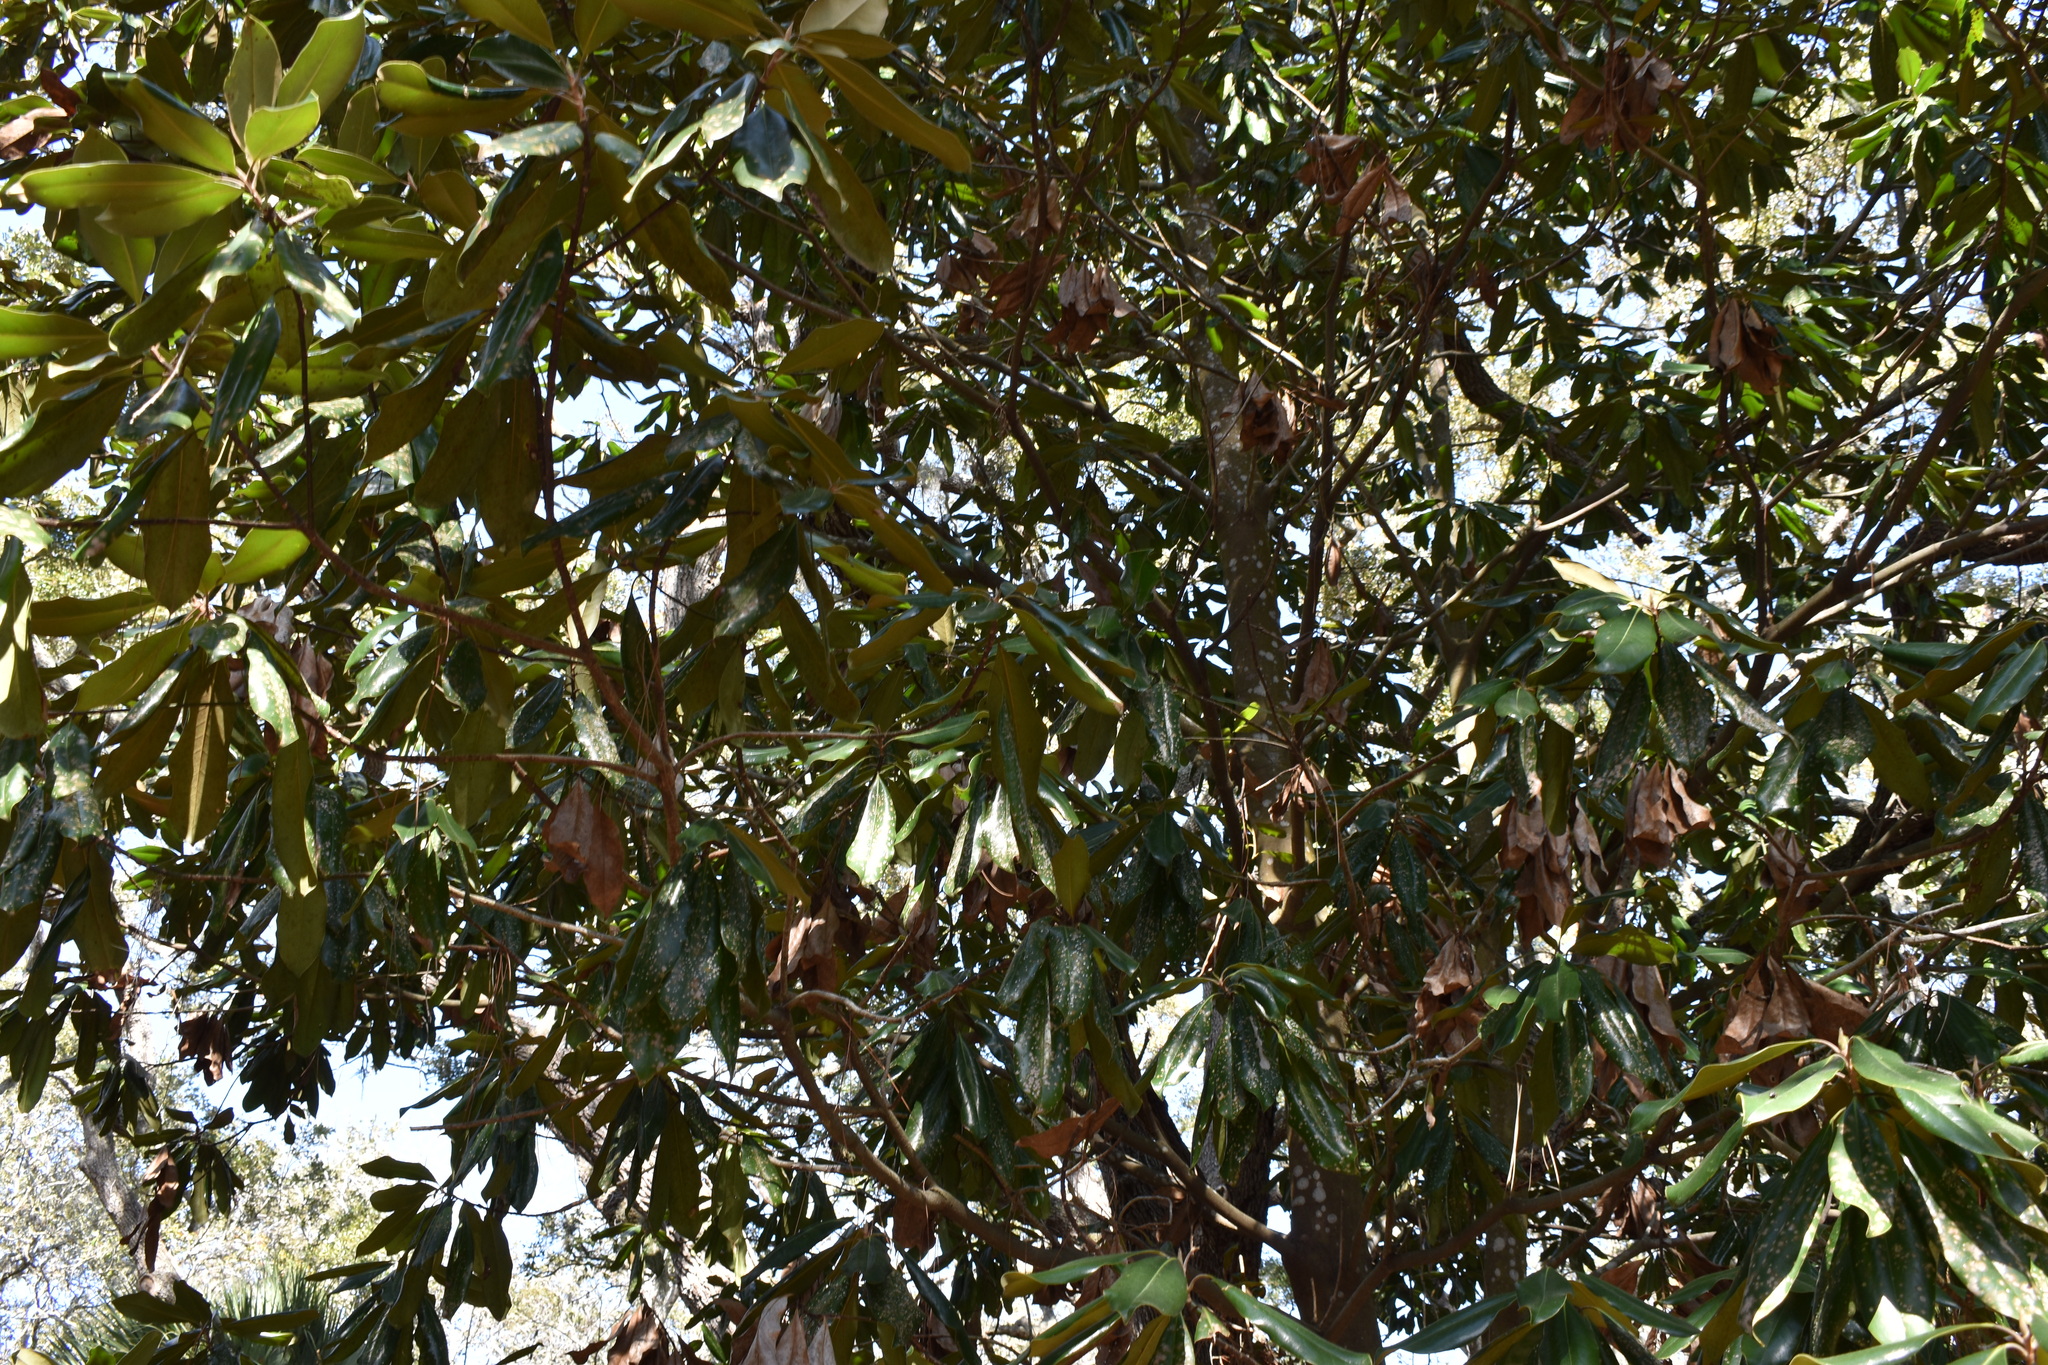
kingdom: Plantae
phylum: Tracheophyta
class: Magnoliopsida
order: Magnoliales
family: Magnoliaceae
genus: Magnolia
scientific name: Magnolia grandiflora
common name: Southern magnolia
